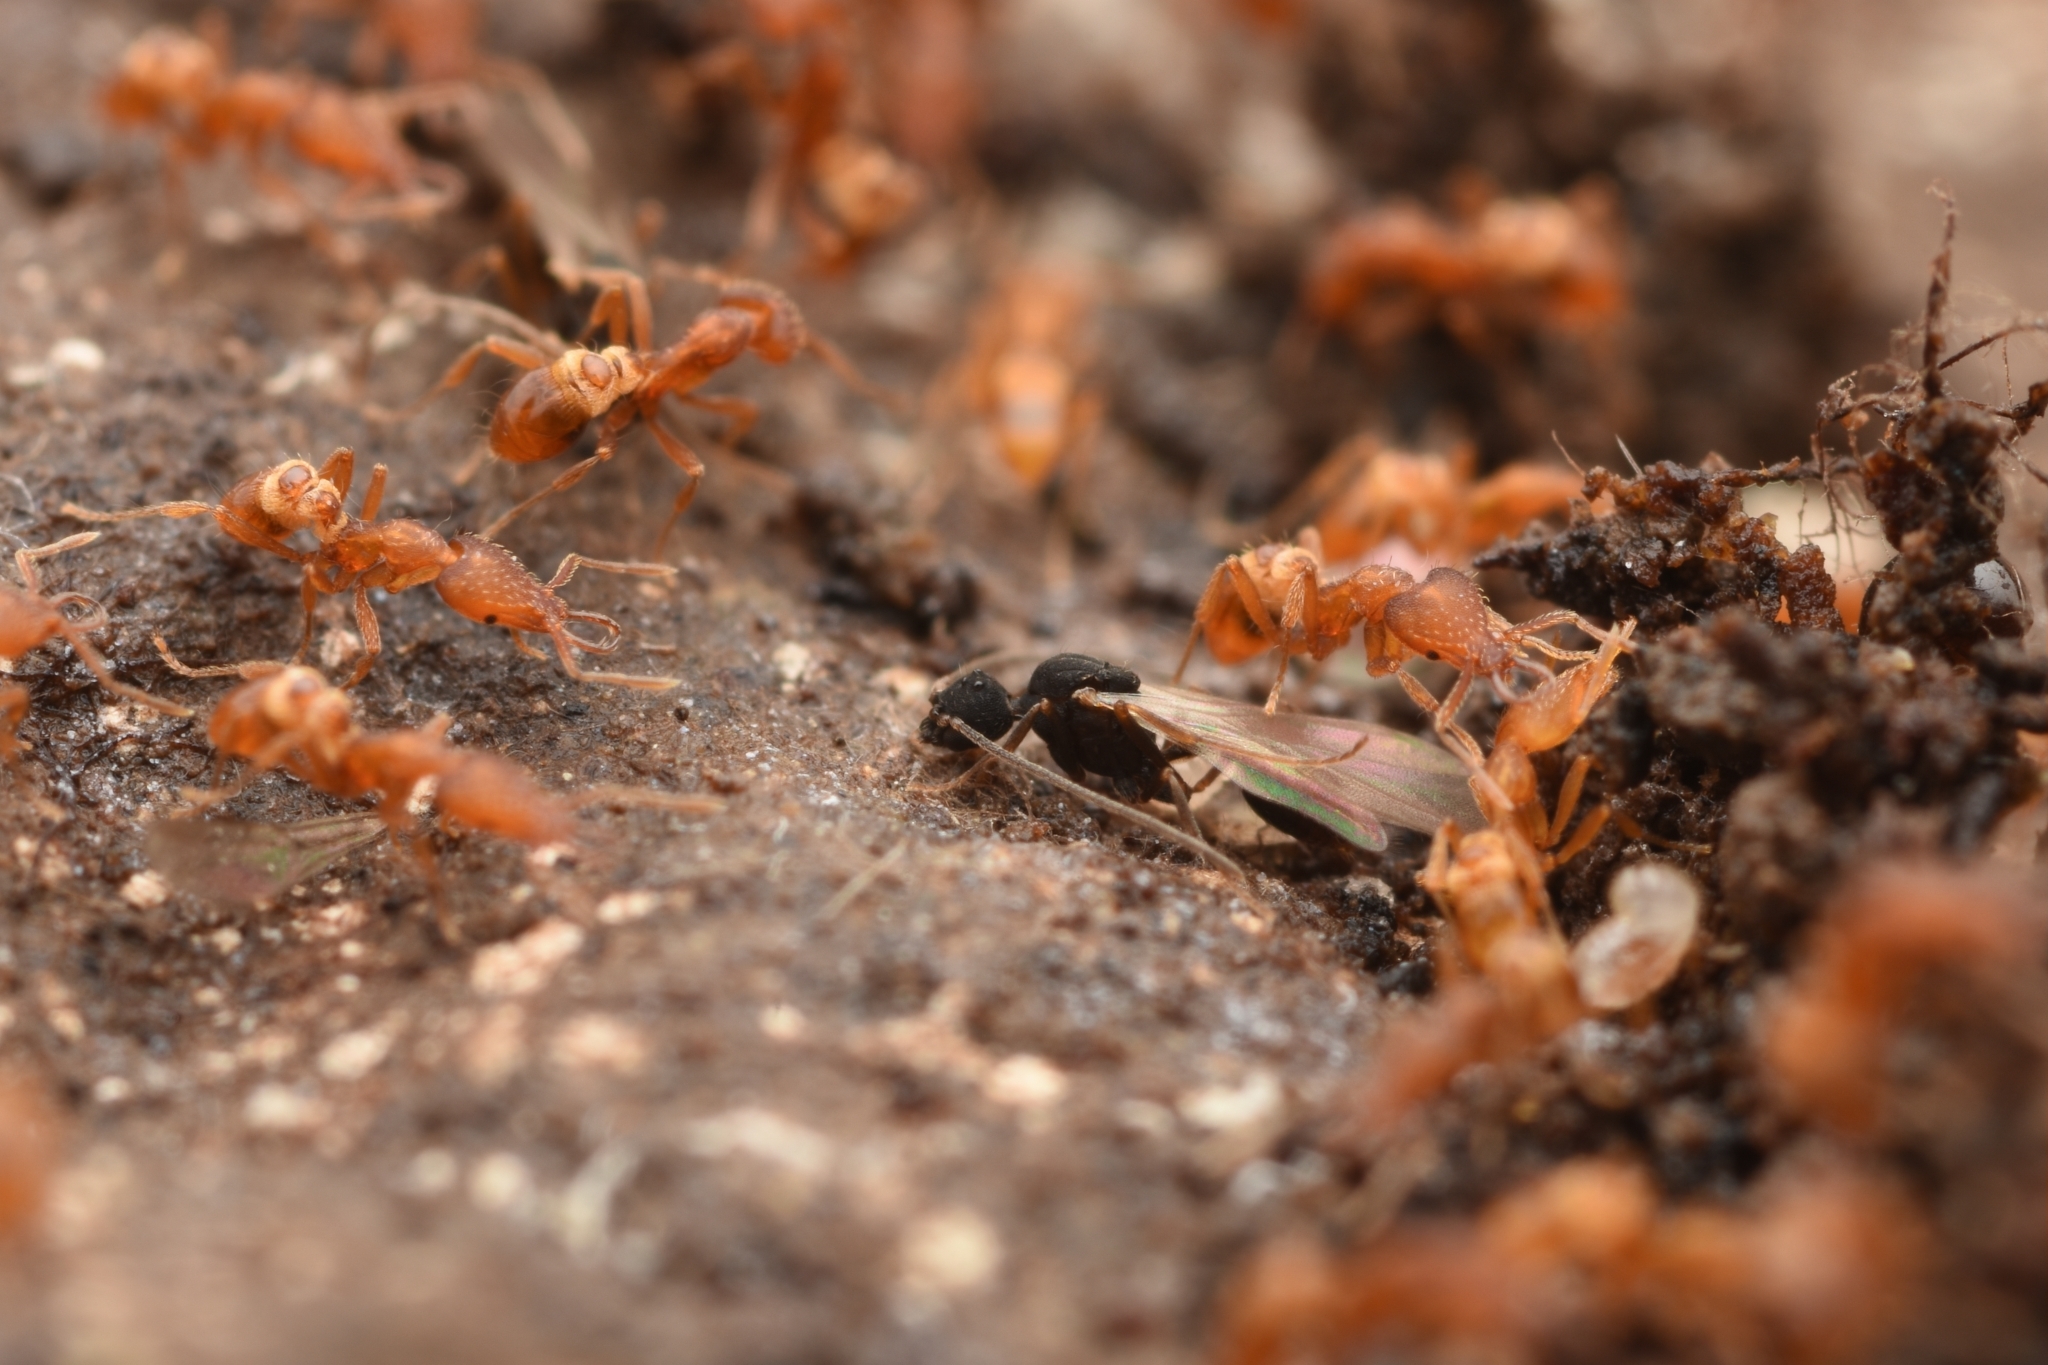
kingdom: Animalia
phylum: Arthropoda
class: Insecta
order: Hymenoptera
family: Formicidae
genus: Strumigenys
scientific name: Strumigenys lewisi
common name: Ant
